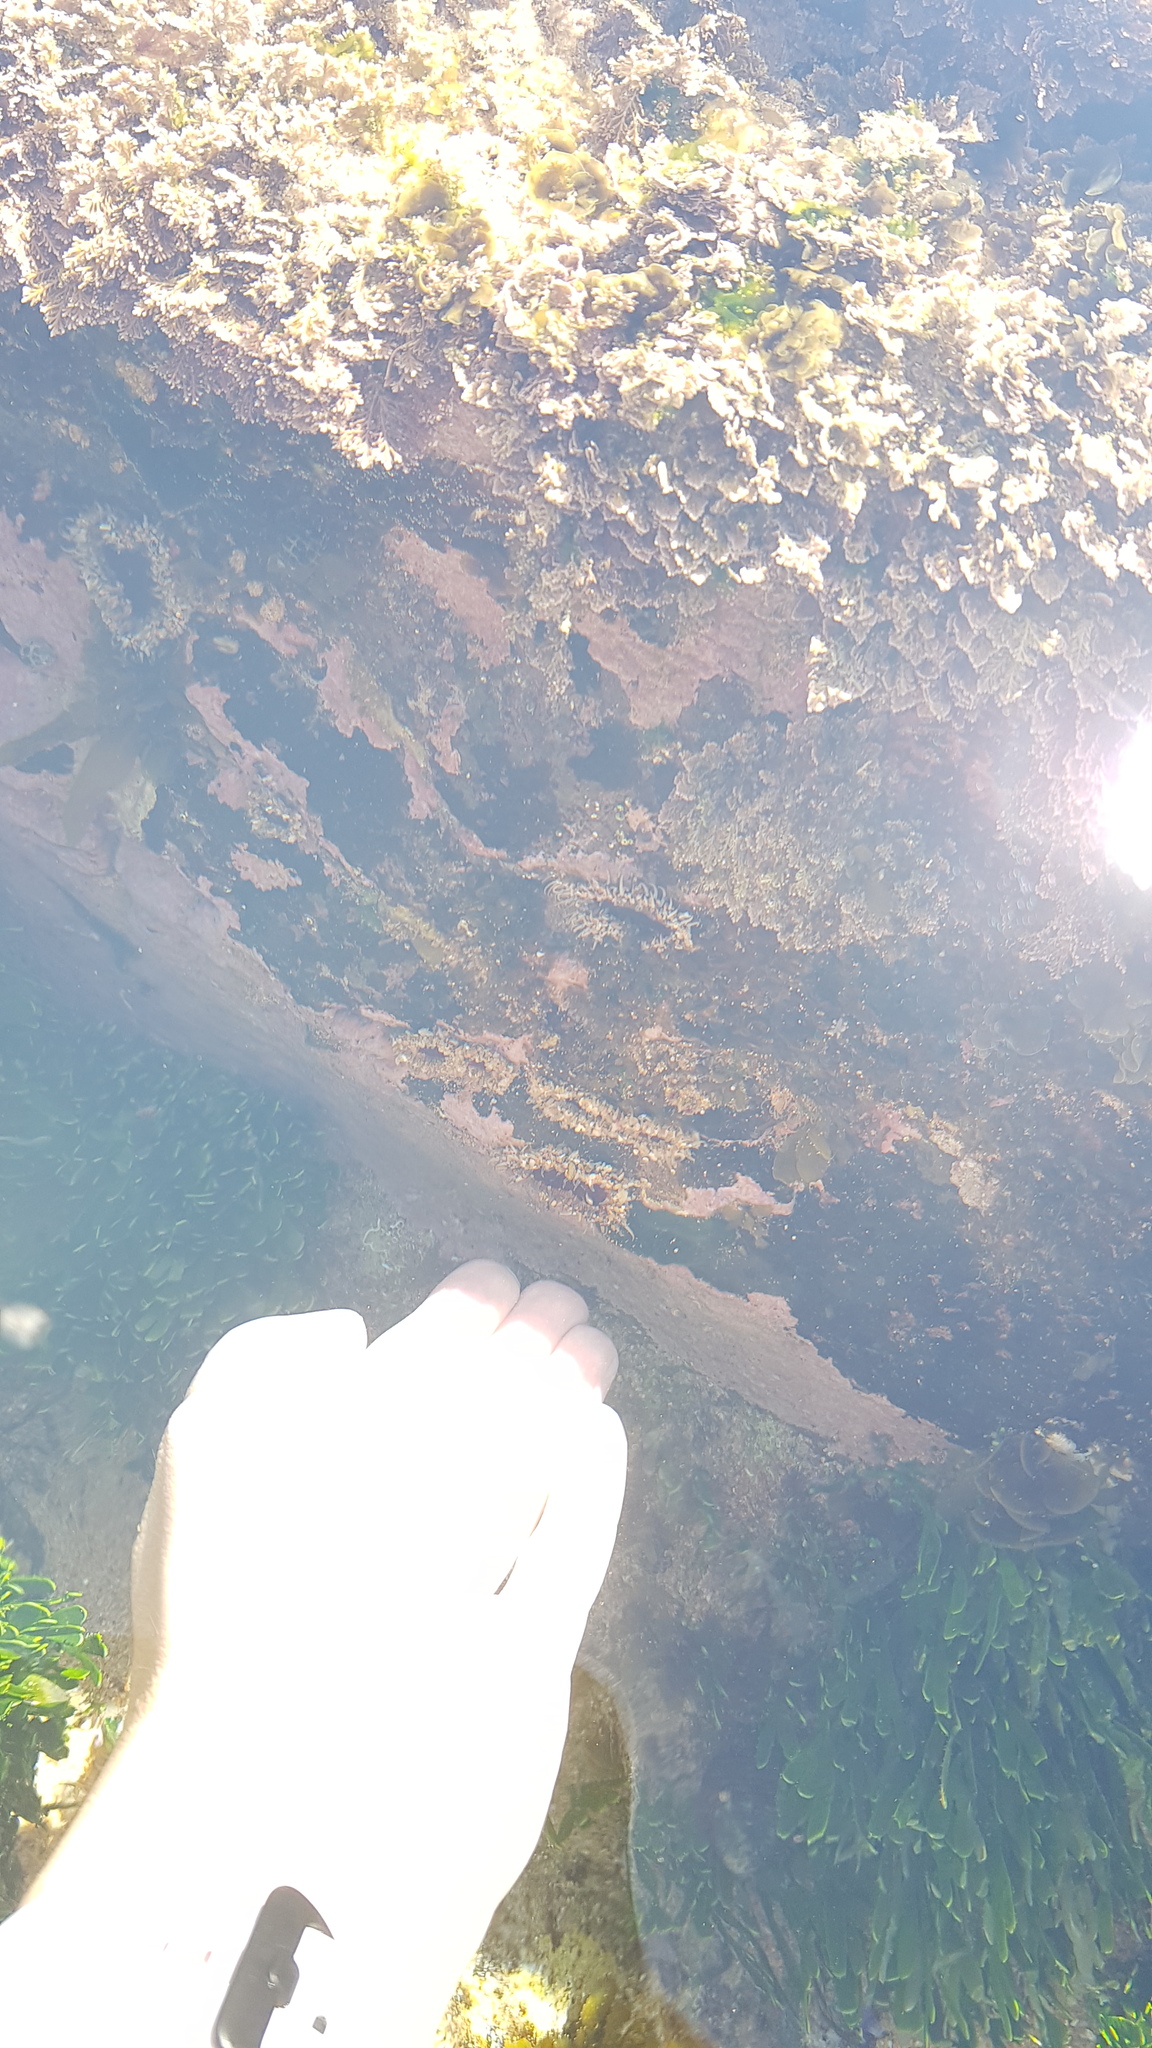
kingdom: Animalia
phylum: Cnidaria
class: Anthozoa
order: Actiniaria
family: Actiniidae
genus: Oulactis
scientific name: Oulactis muscosa
